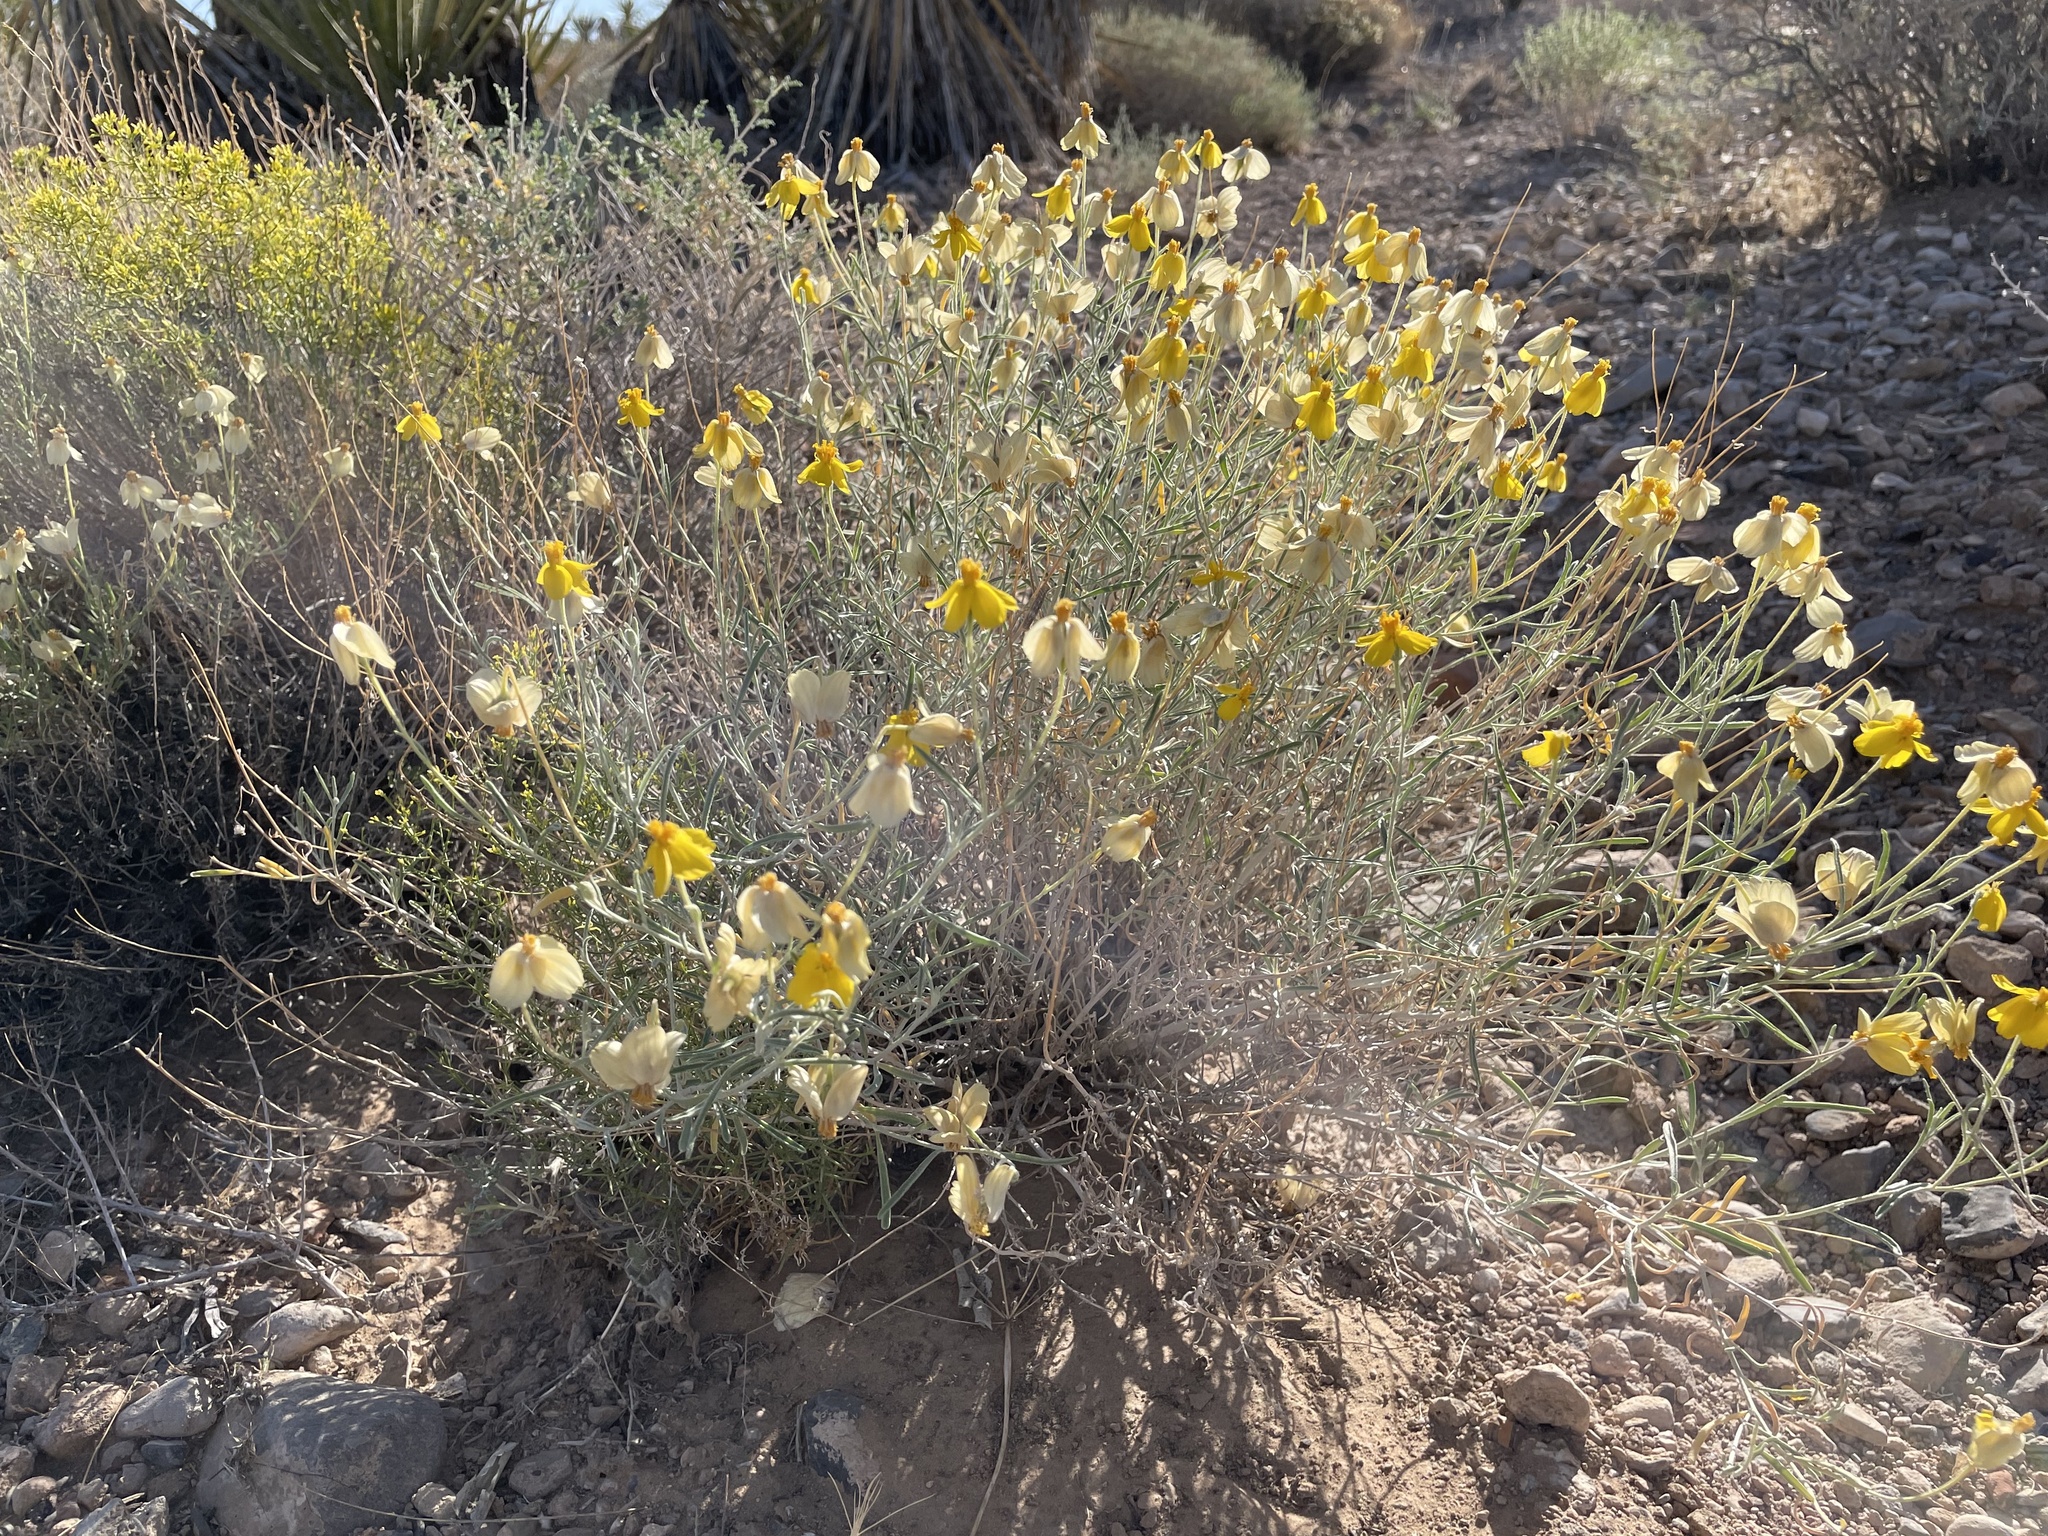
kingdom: Plantae
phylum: Tracheophyta
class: Magnoliopsida
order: Asterales
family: Asteraceae
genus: Psilostrophe
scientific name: Psilostrophe cooperi
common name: White-stem paper-flower
